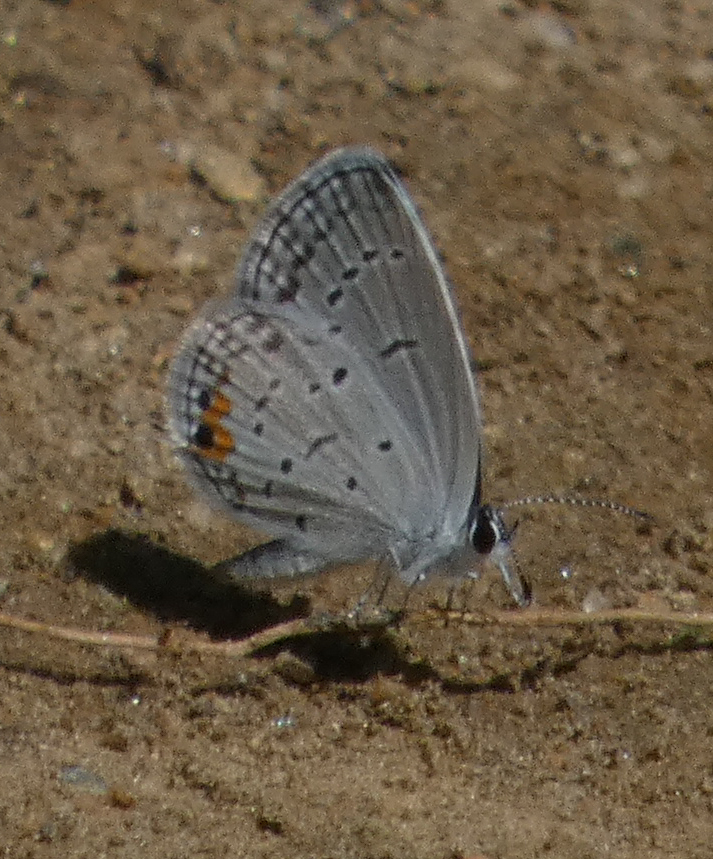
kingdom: Animalia
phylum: Arthropoda
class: Insecta
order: Lepidoptera
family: Lycaenidae
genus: Elkalyce
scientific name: Elkalyce comyntas
